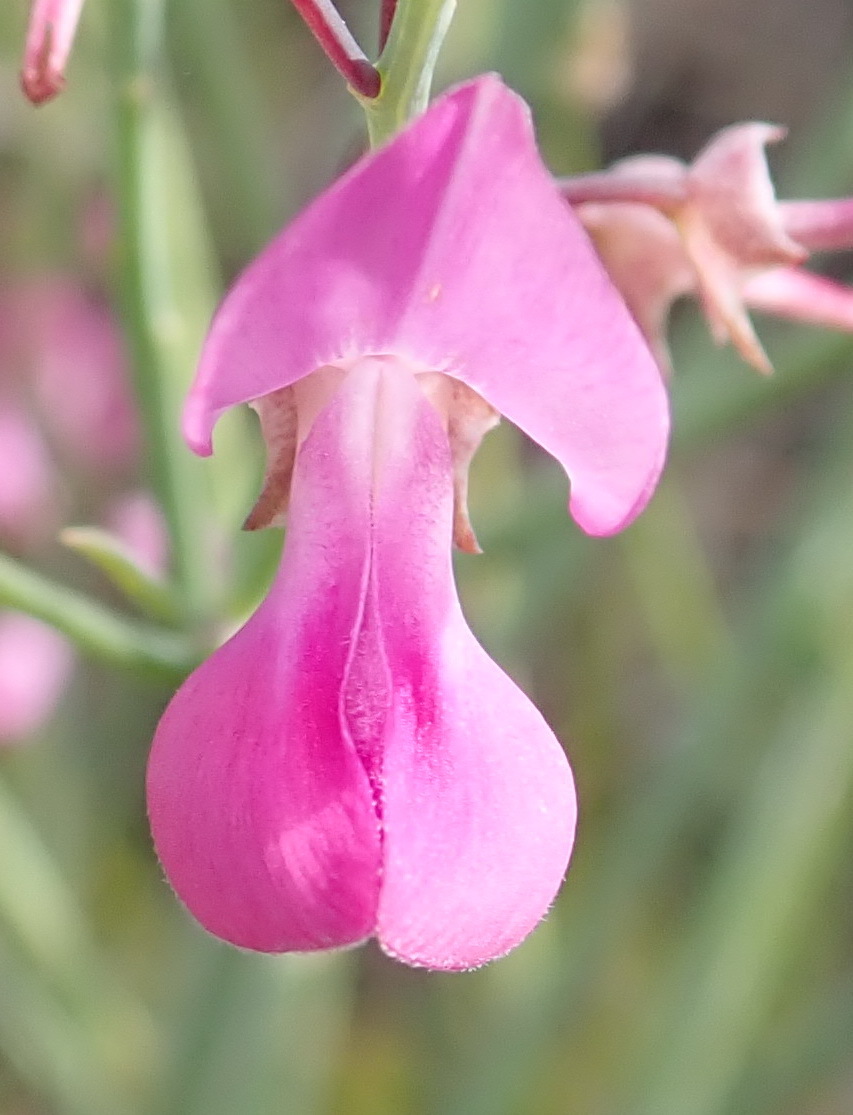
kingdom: Plantae
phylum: Tracheophyta
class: Magnoliopsida
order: Fabales
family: Fabaceae
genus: Indigofera
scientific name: Indigofera filifolia
